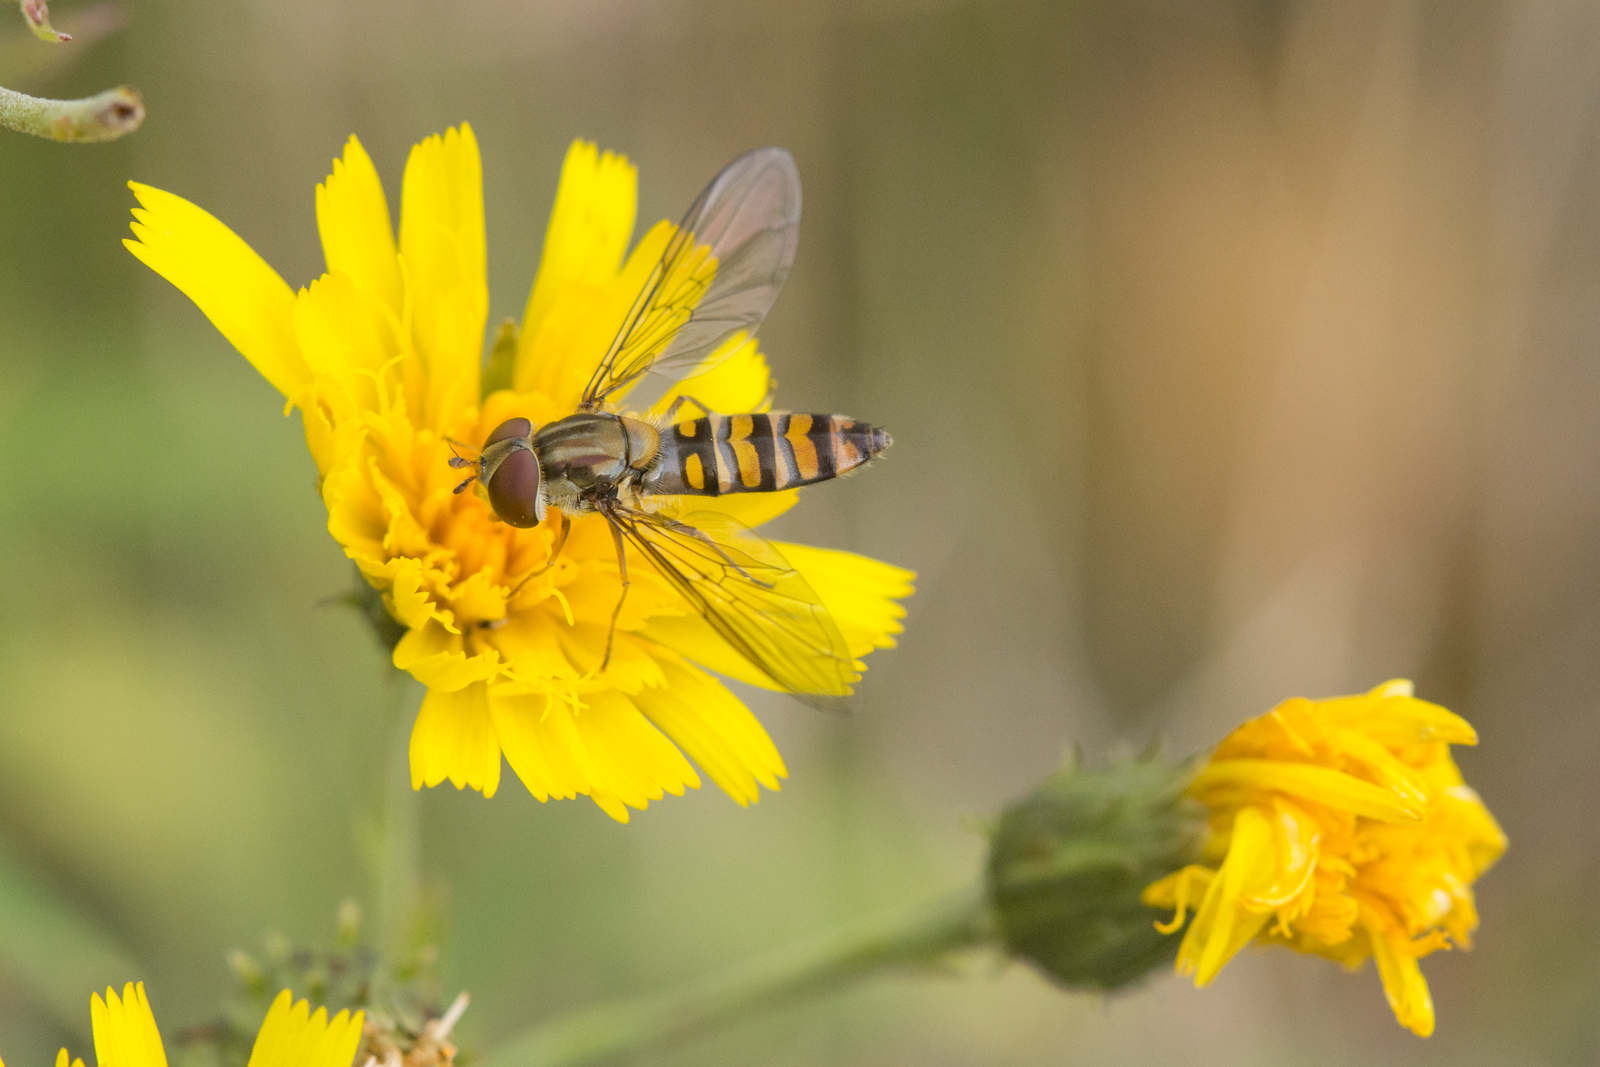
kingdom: Animalia
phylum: Arthropoda
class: Insecta
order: Diptera
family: Syrphidae
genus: Episyrphus
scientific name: Episyrphus balteatus
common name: Marmalade hoverfly
